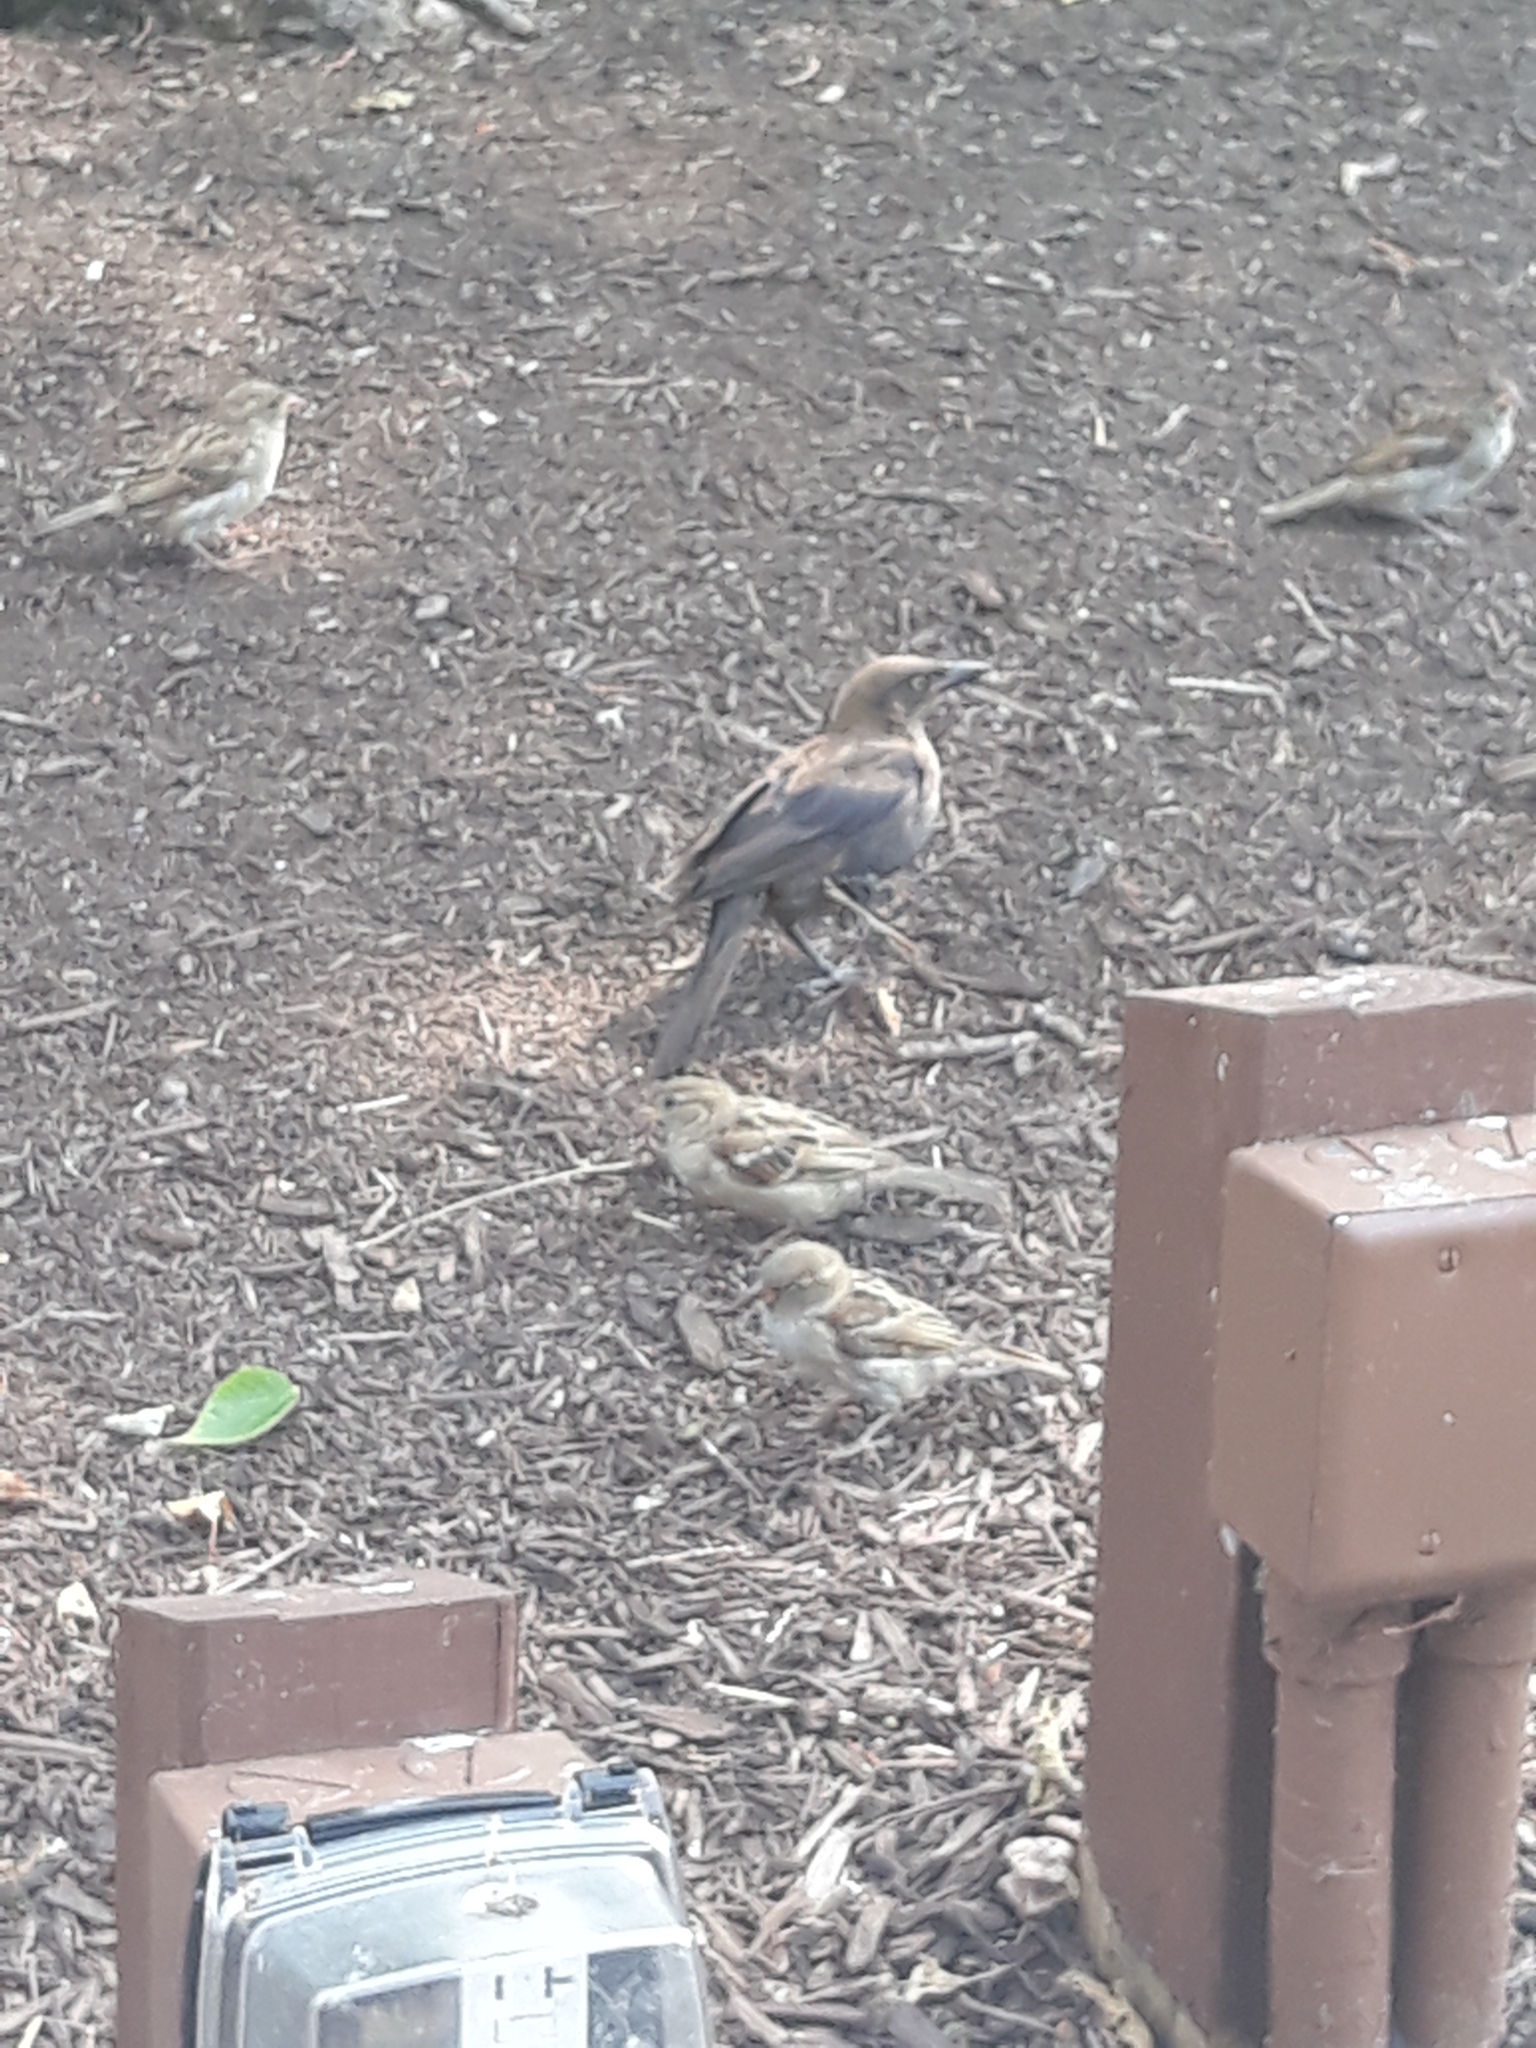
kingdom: Animalia
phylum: Chordata
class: Aves
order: Passeriformes
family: Passeridae
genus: Passer
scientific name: Passer domesticus
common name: House sparrow
